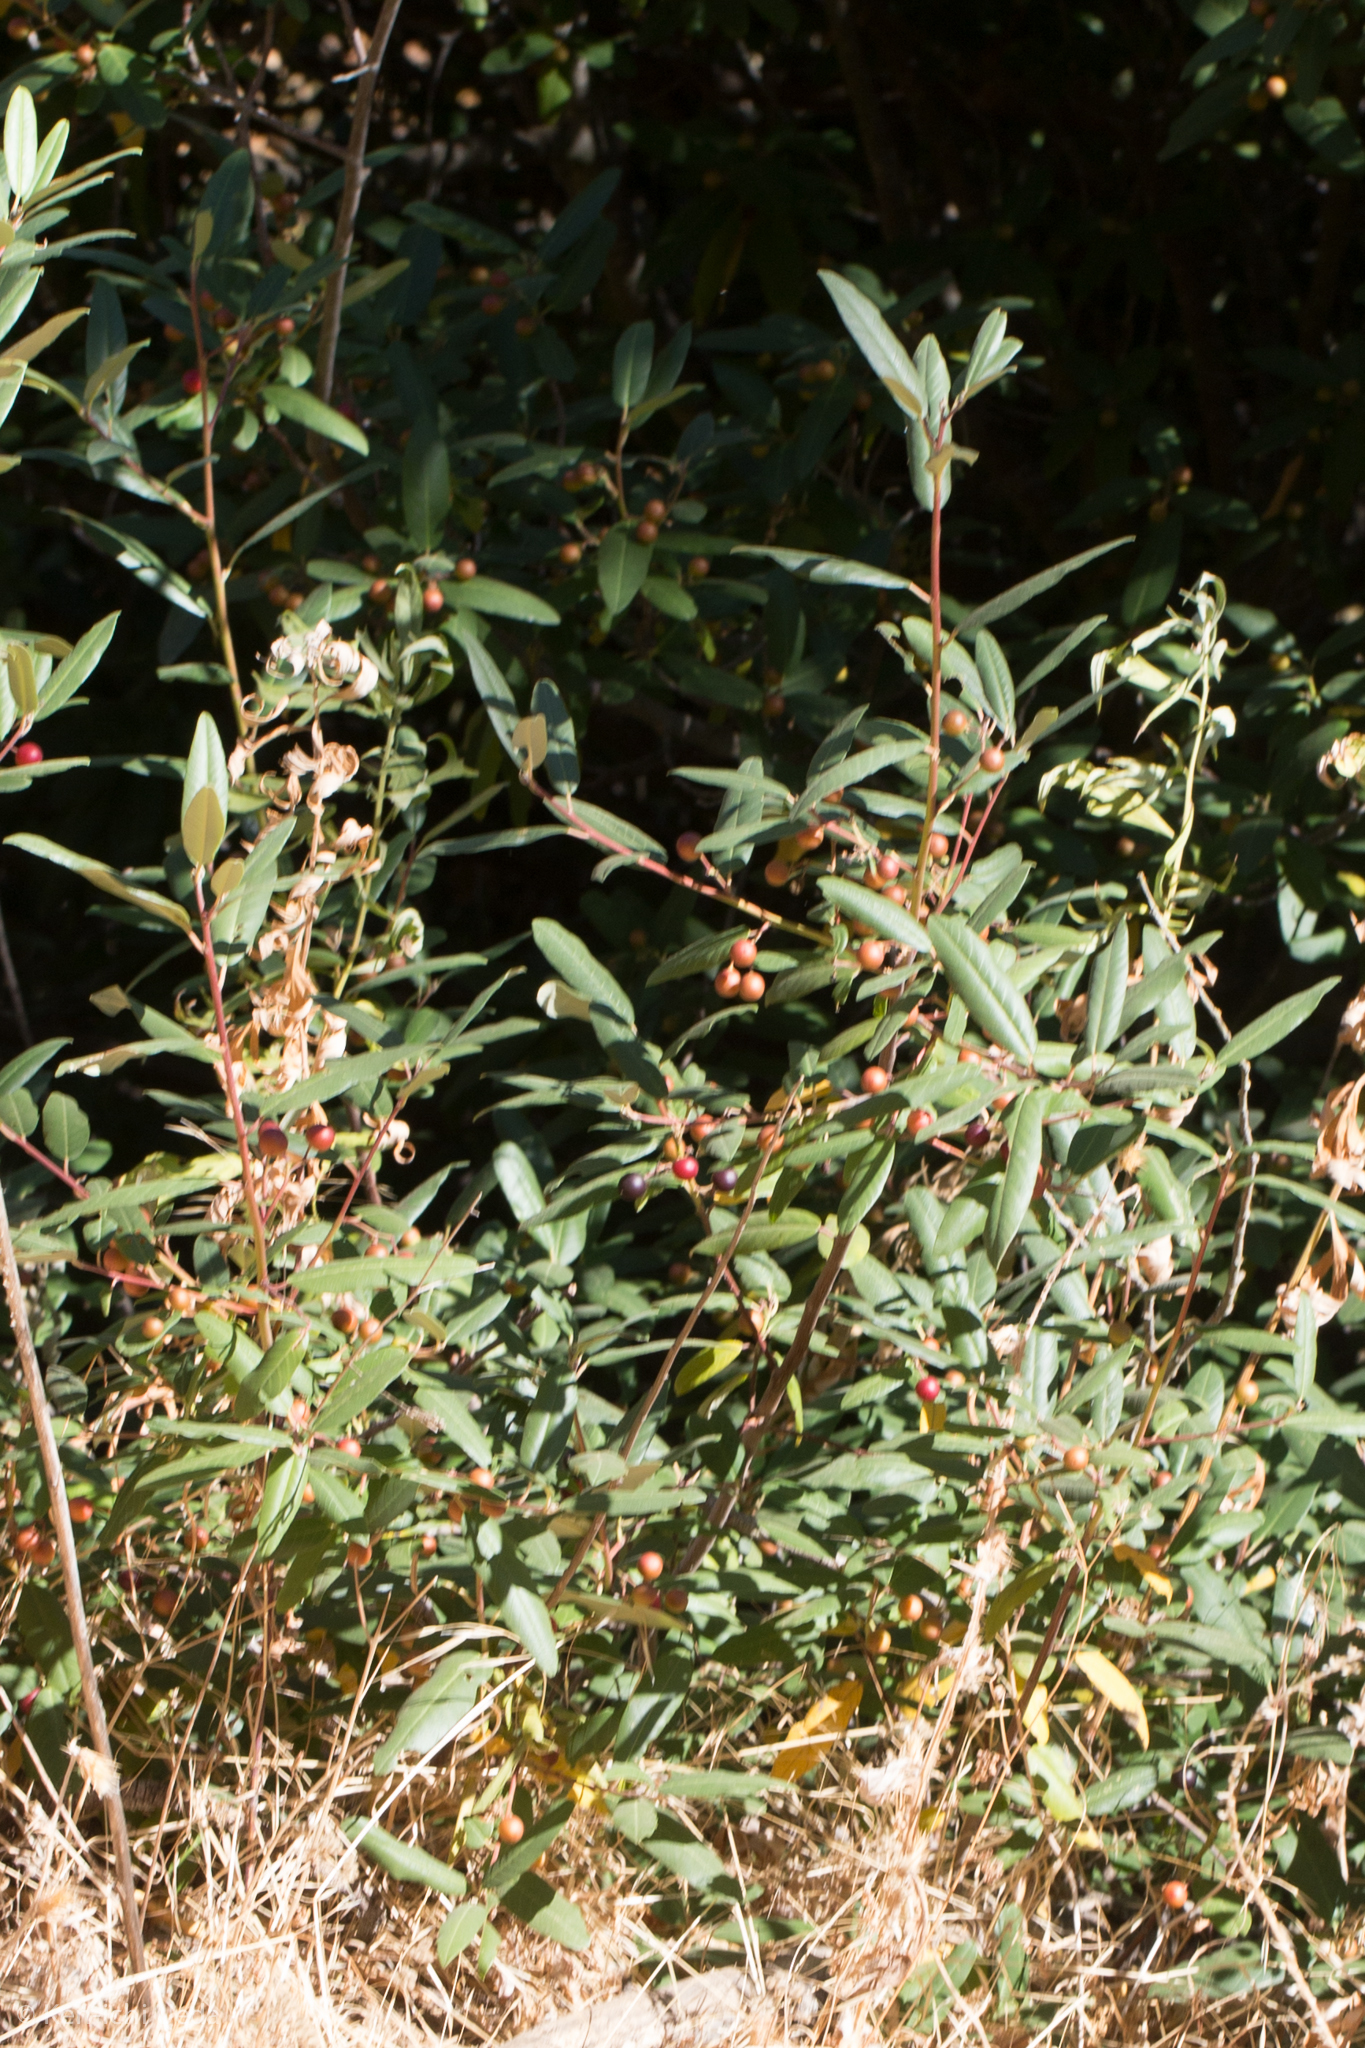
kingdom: Plantae
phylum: Tracheophyta
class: Magnoliopsida
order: Rosales
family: Rhamnaceae
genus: Frangula
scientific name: Frangula californica
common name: California buckthorn
